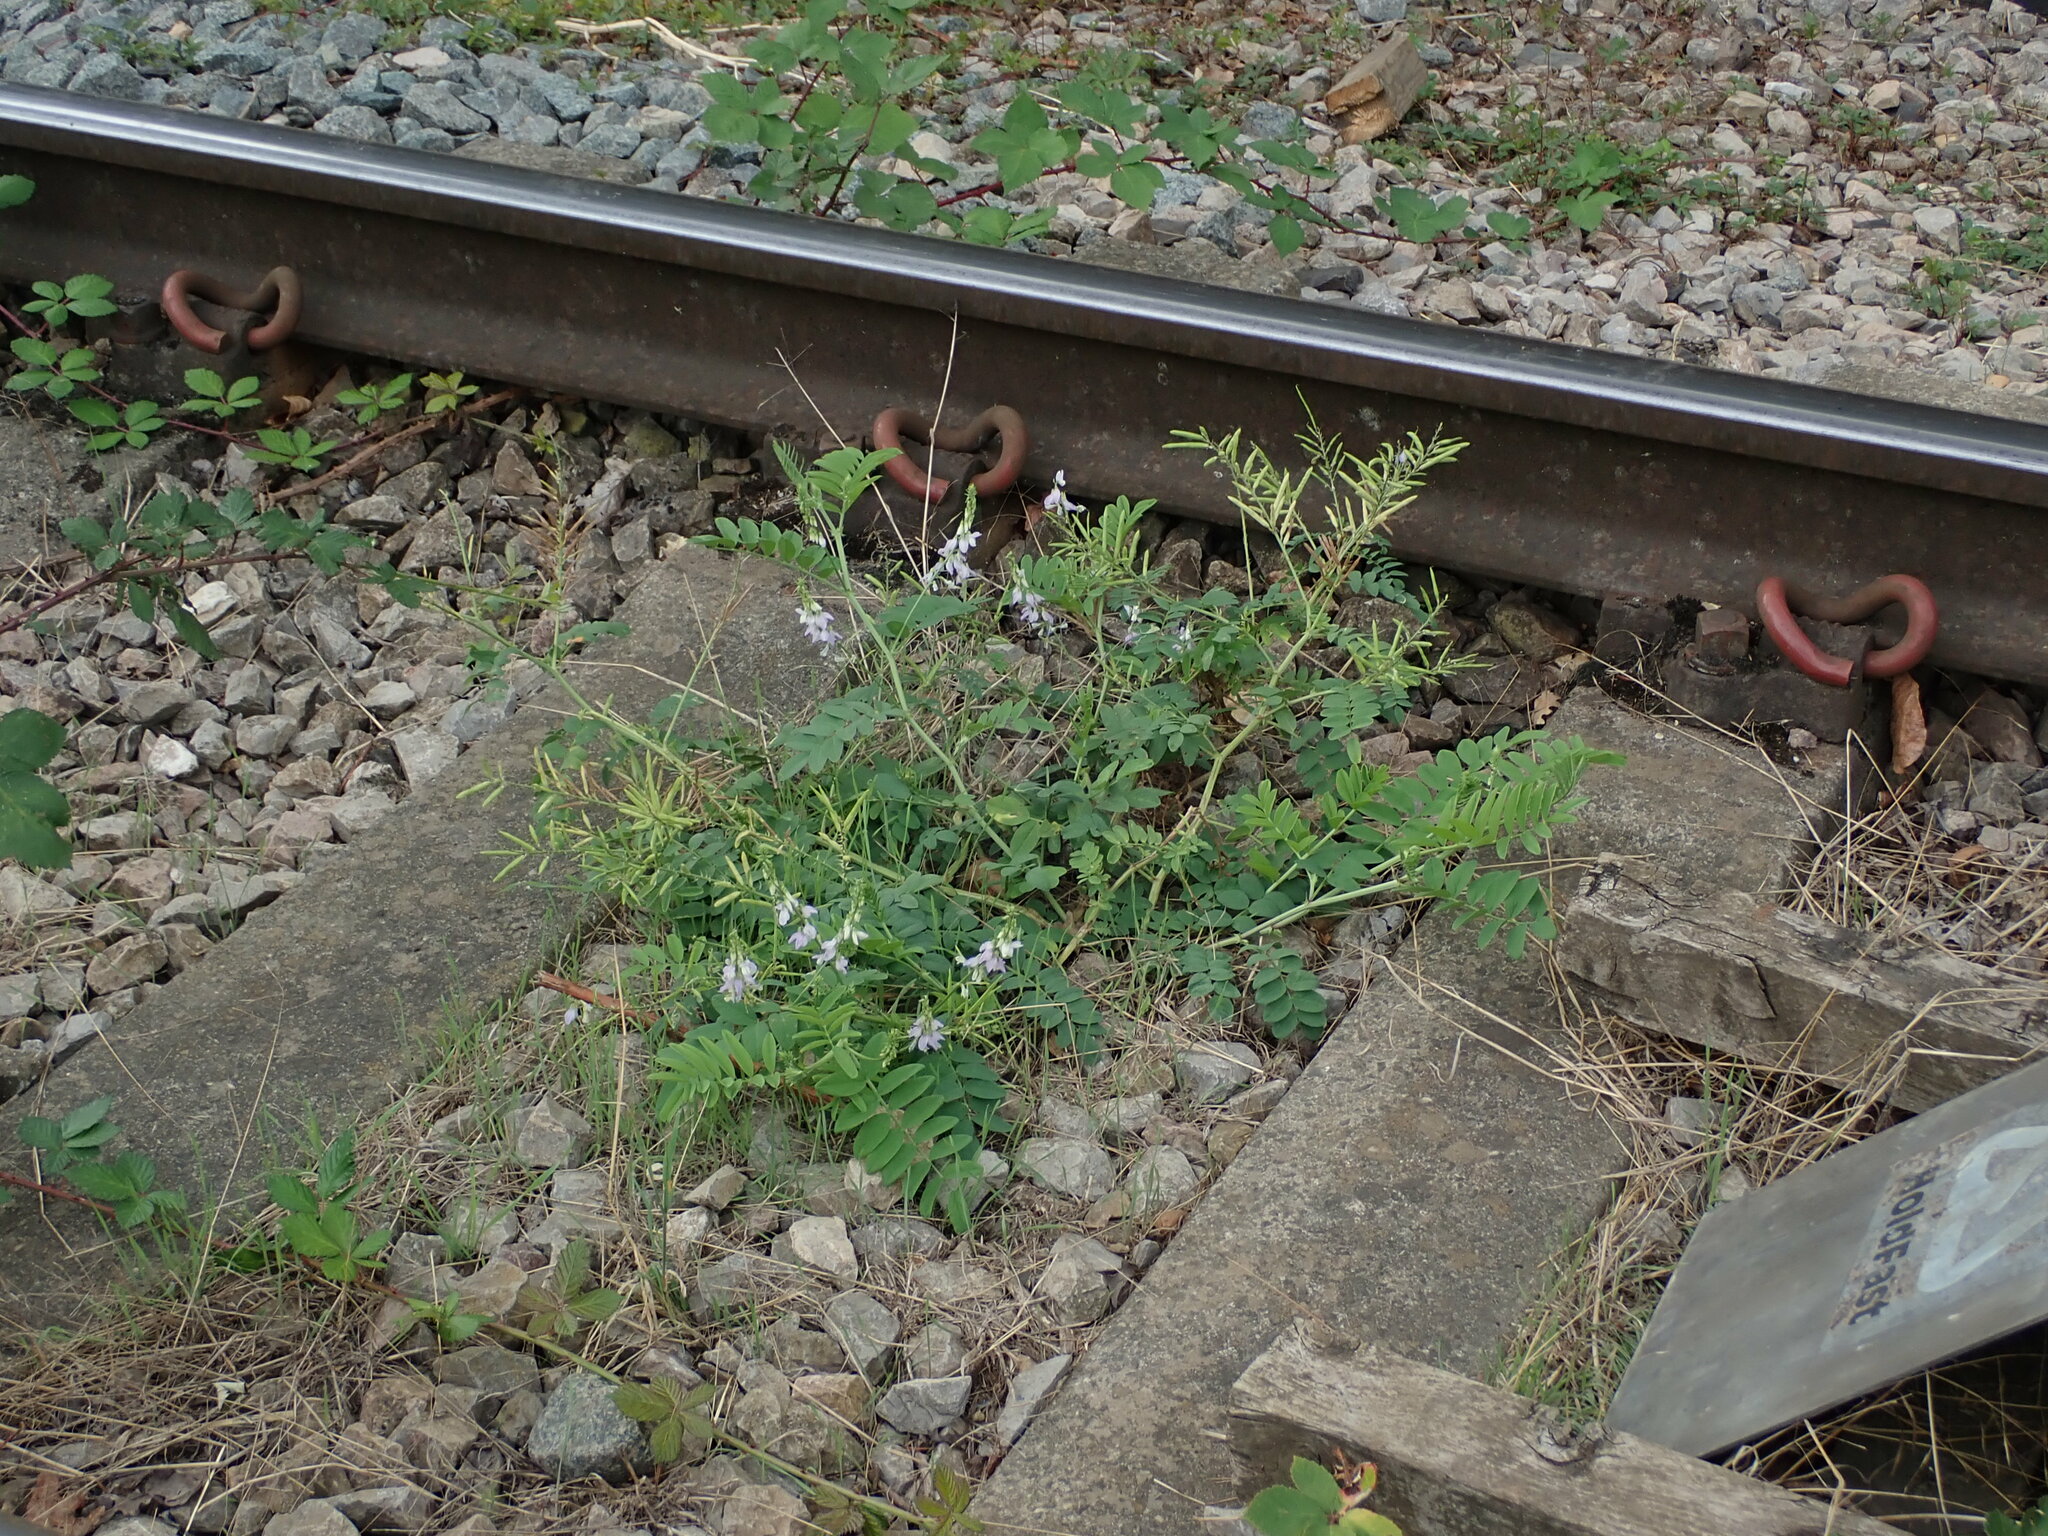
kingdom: Plantae
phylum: Tracheophyta
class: Magnoliopsida
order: Fabales
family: Fabaceae
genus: Galega
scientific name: Galega officinalis
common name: Goat's-rue
